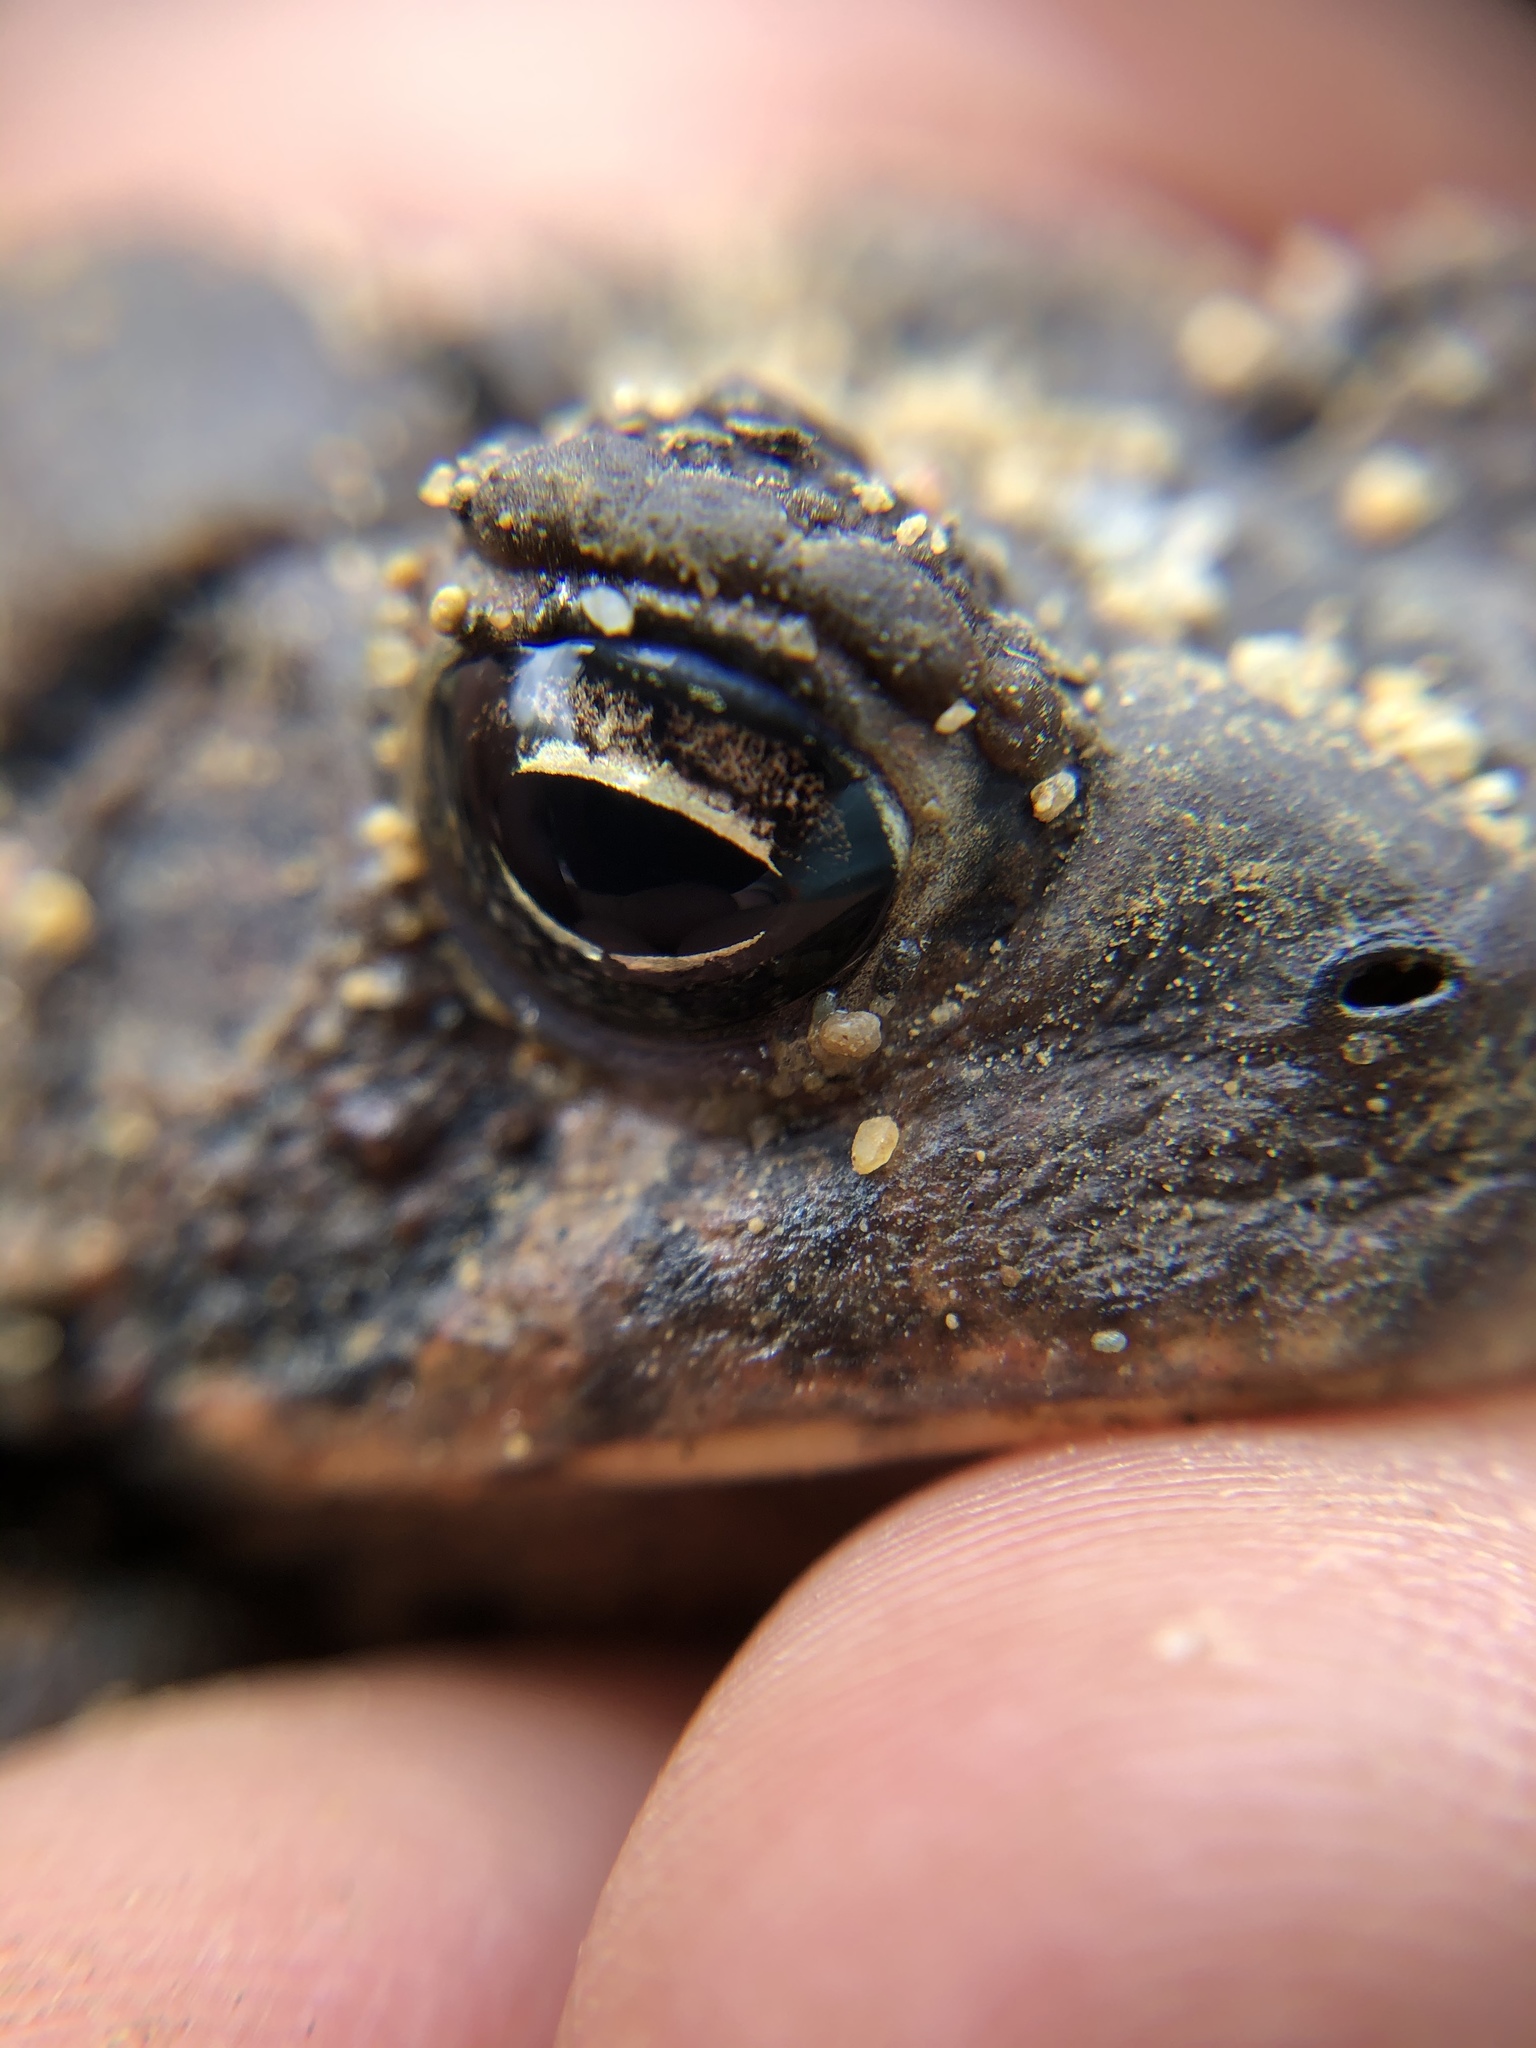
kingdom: Animalia
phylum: Chordata
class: Amphibia
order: Anura
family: Bufonidae
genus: Anaxyrus
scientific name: Anaxyrus americanus
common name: American toad
